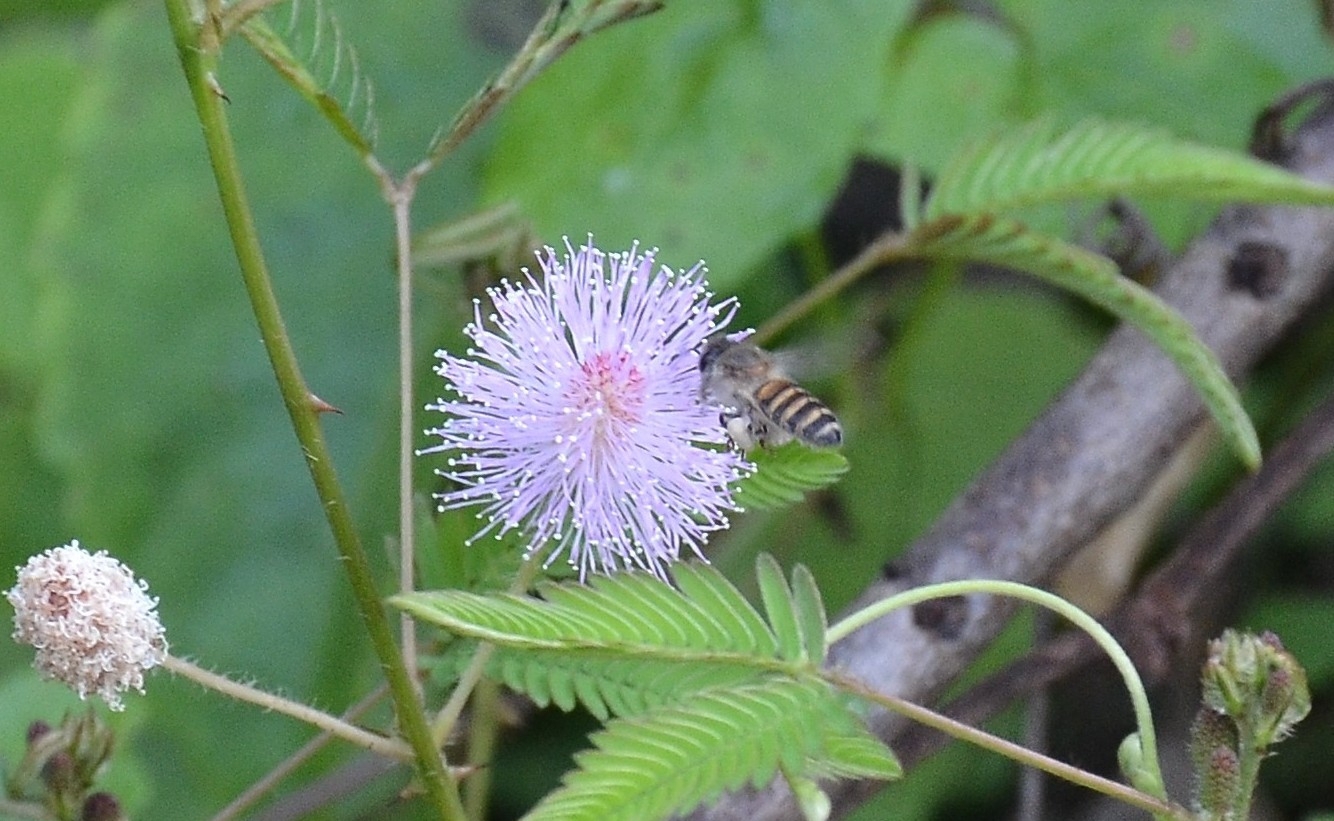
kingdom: Animalia
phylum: Arthropoda
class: Insecta
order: Hymenoptera
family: Apidae
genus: Apis
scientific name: Apis cerana
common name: Honey bee
